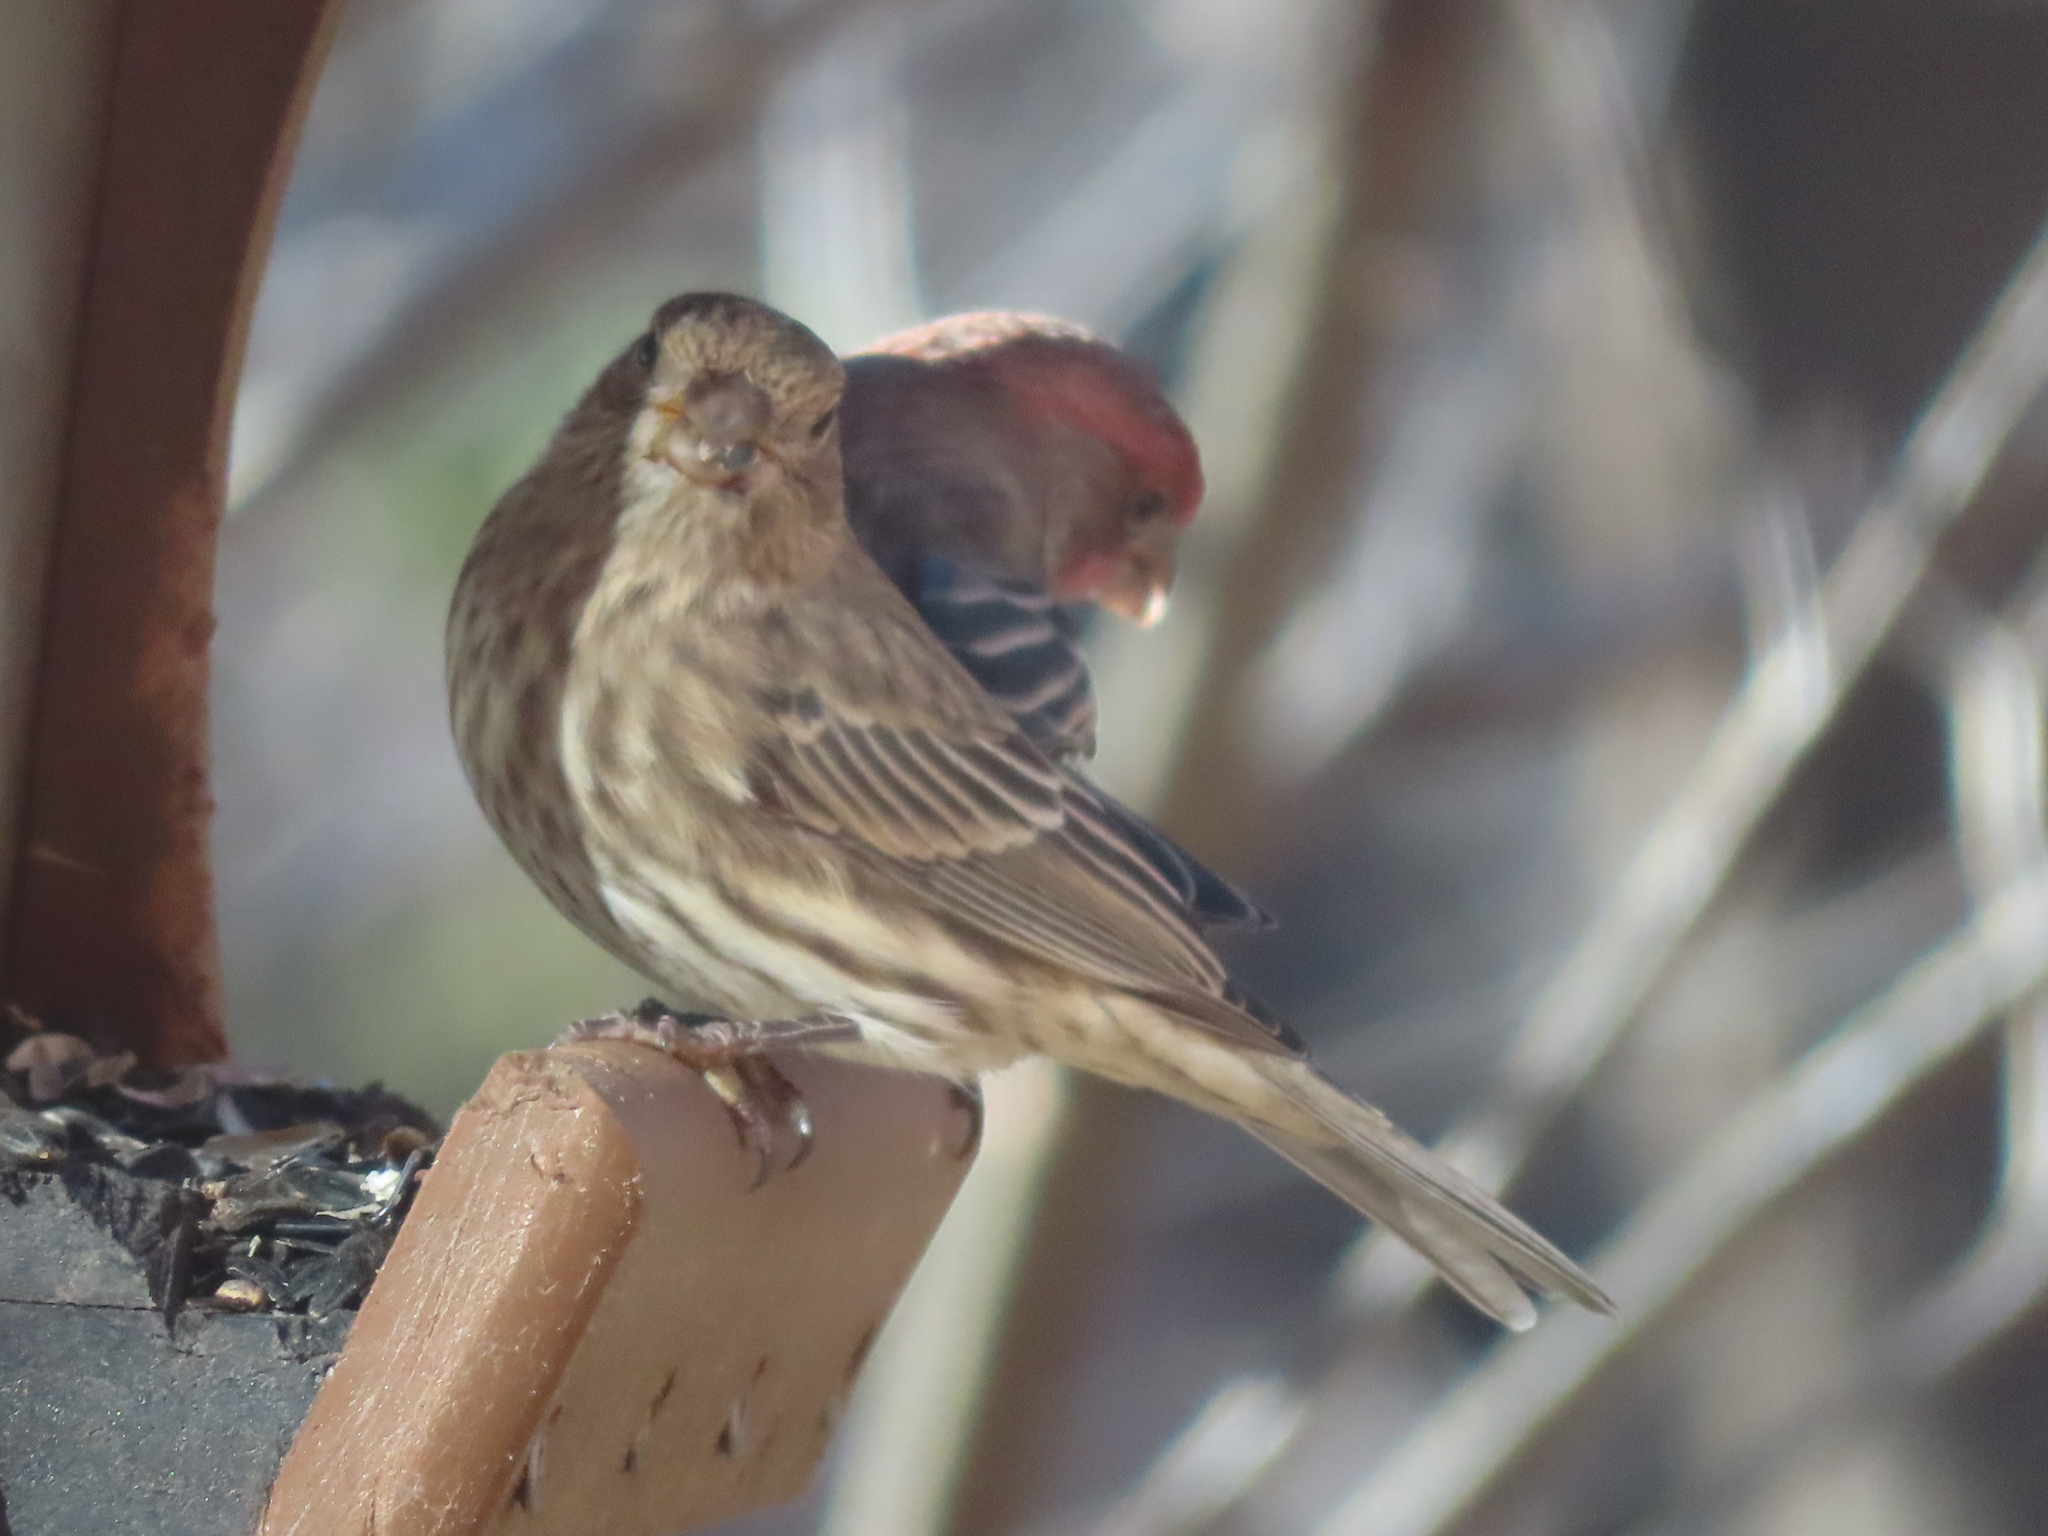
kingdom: Animalia
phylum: Chordata
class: Aves
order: Passeriformes
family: Fringillidae
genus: Haemorhous
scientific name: Haemorhous mexicanus
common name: House finch
